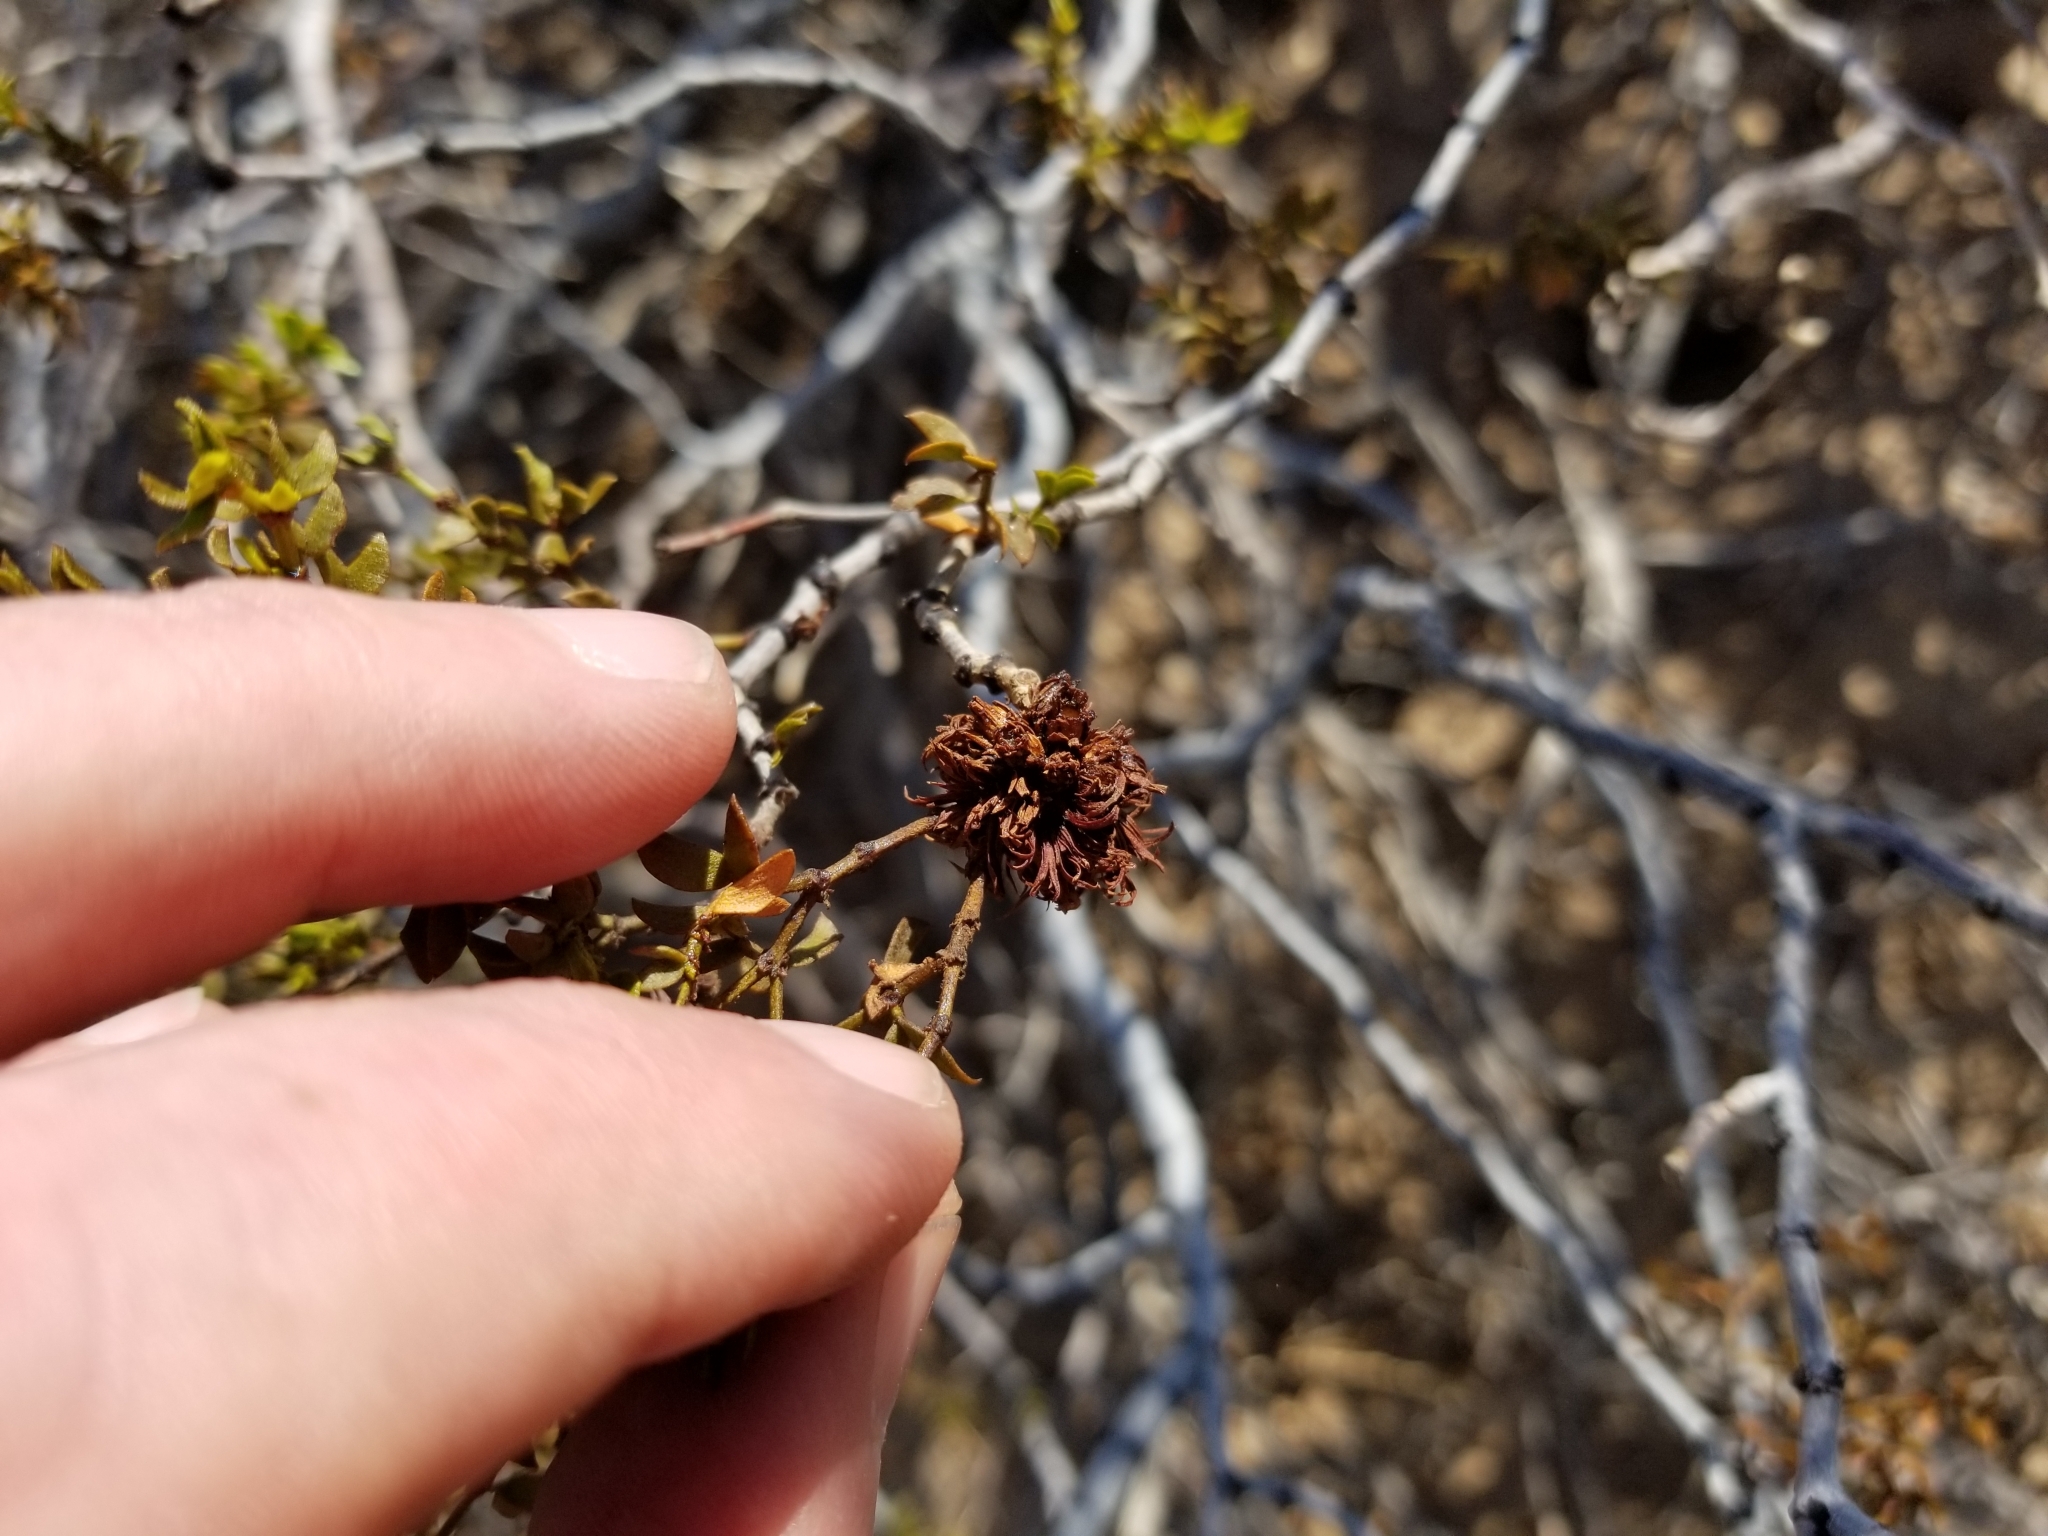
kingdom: Animalia
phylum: Arthropoda
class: Insecta
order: Diptera
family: Cecidomyiidae
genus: Asphondylia
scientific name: Asphondylia auripila
